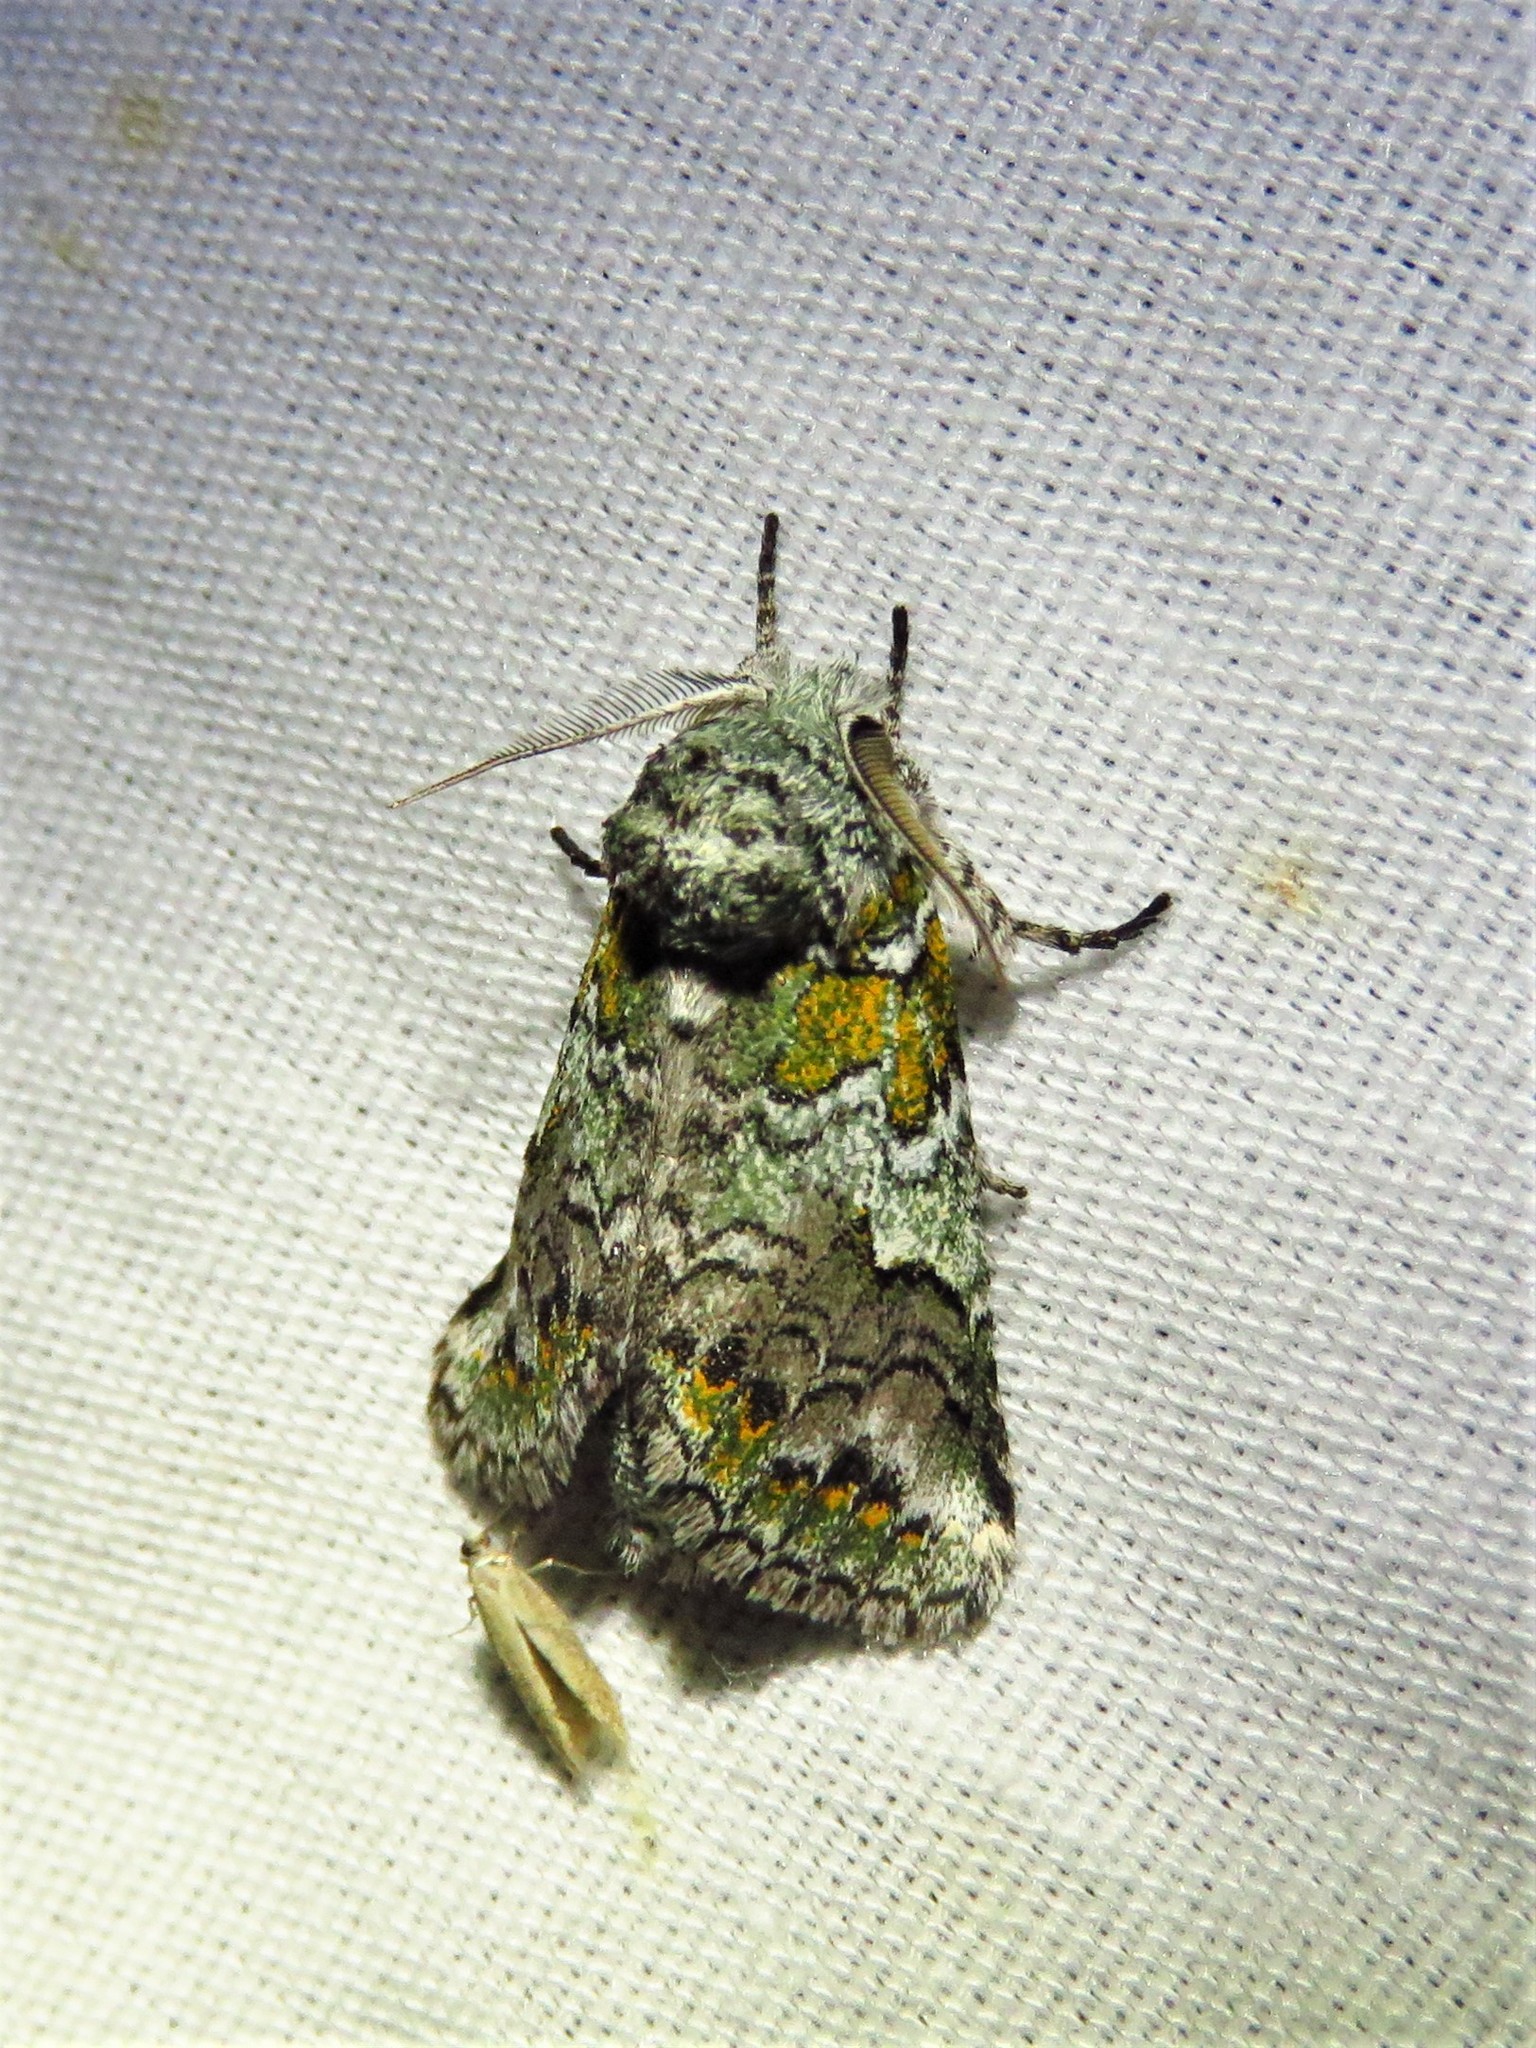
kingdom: Animalia
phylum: Arthropoda
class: Insecta
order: Lepidoptera
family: Notodontidae
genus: Litodonta
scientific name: Litodonta hydromeli
